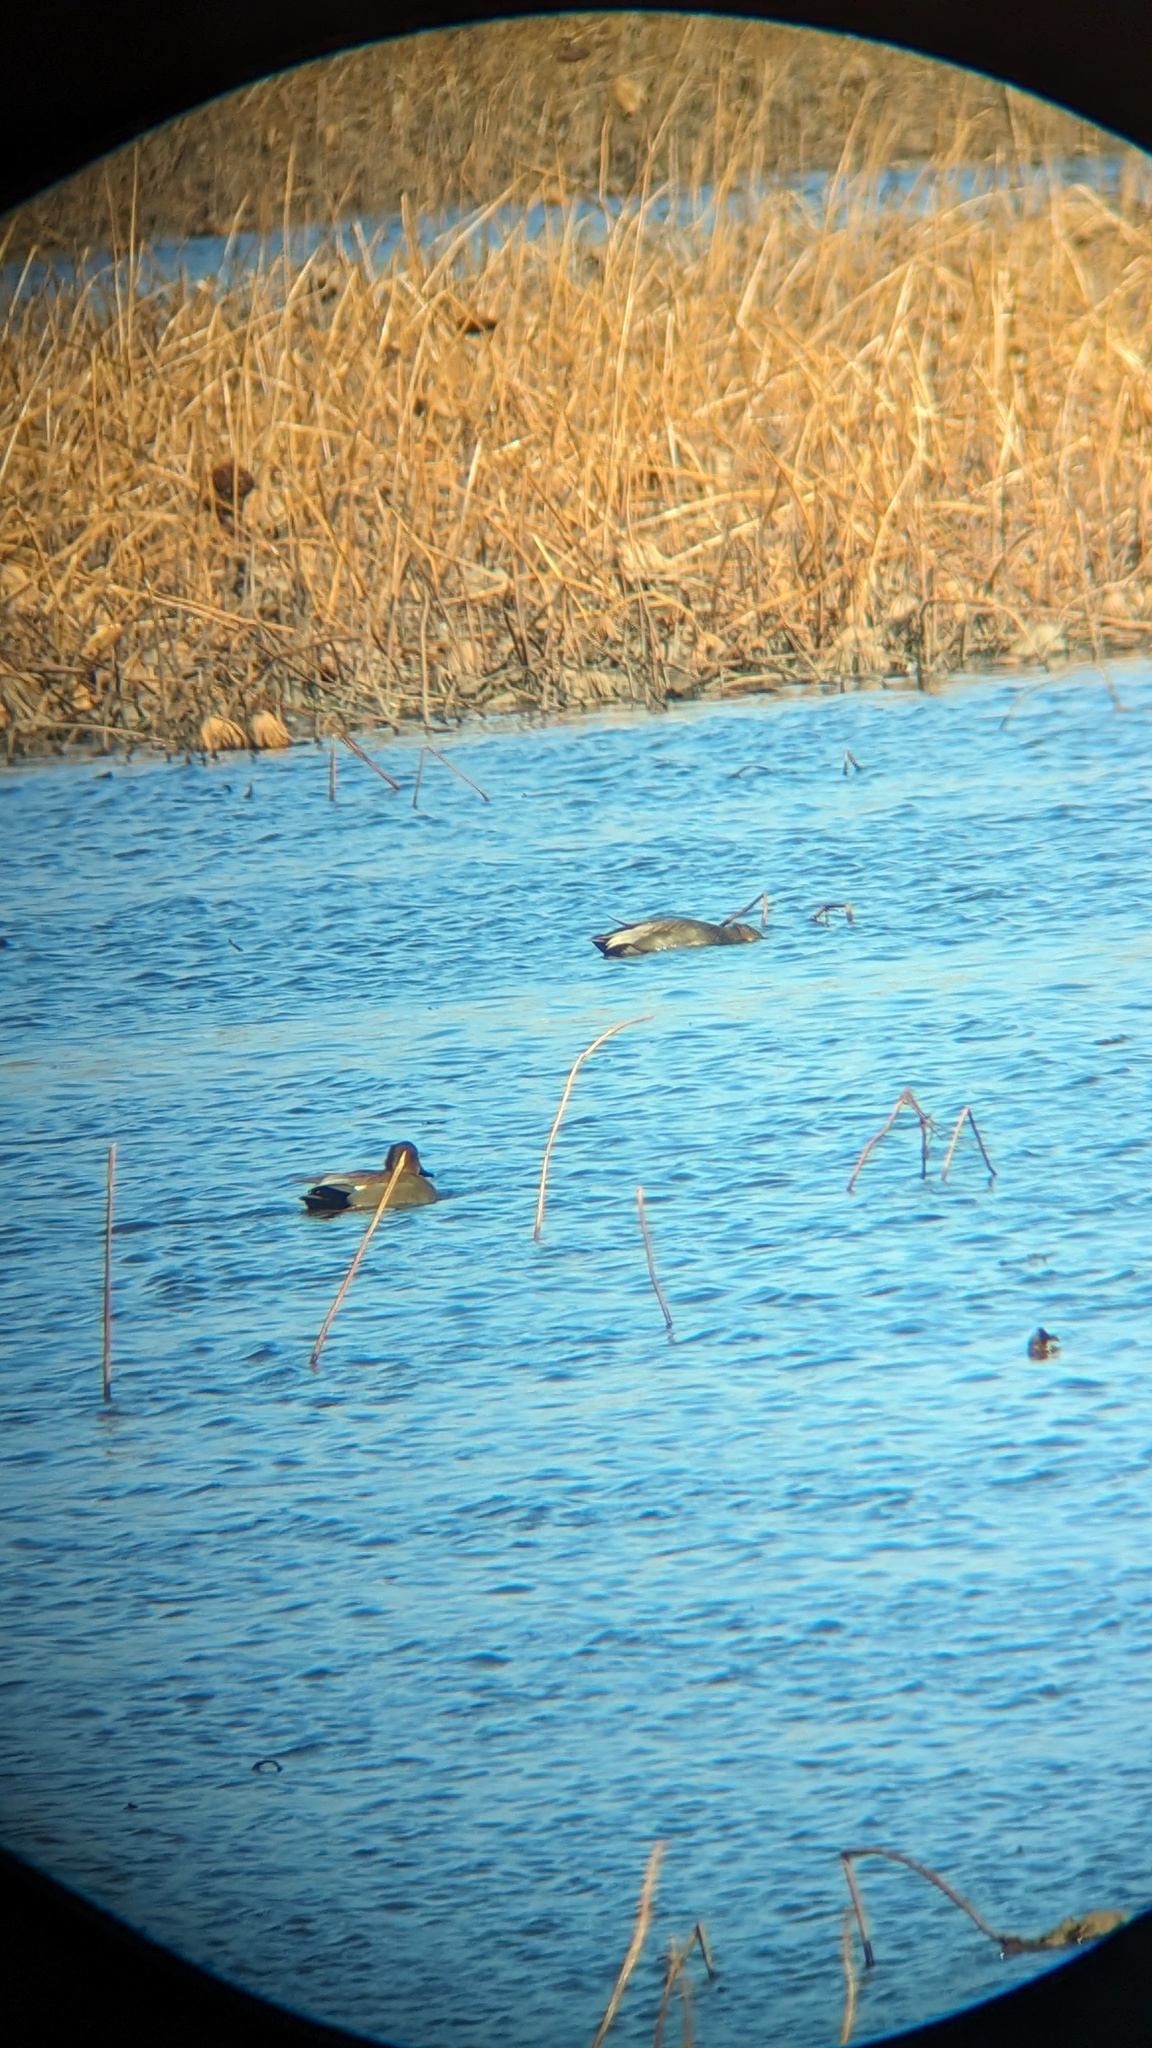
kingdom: Animalia
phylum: Chordata
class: Aves
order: Anseriformes
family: Anatidae
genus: Mareca
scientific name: Mareca strepera
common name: Gadwall
